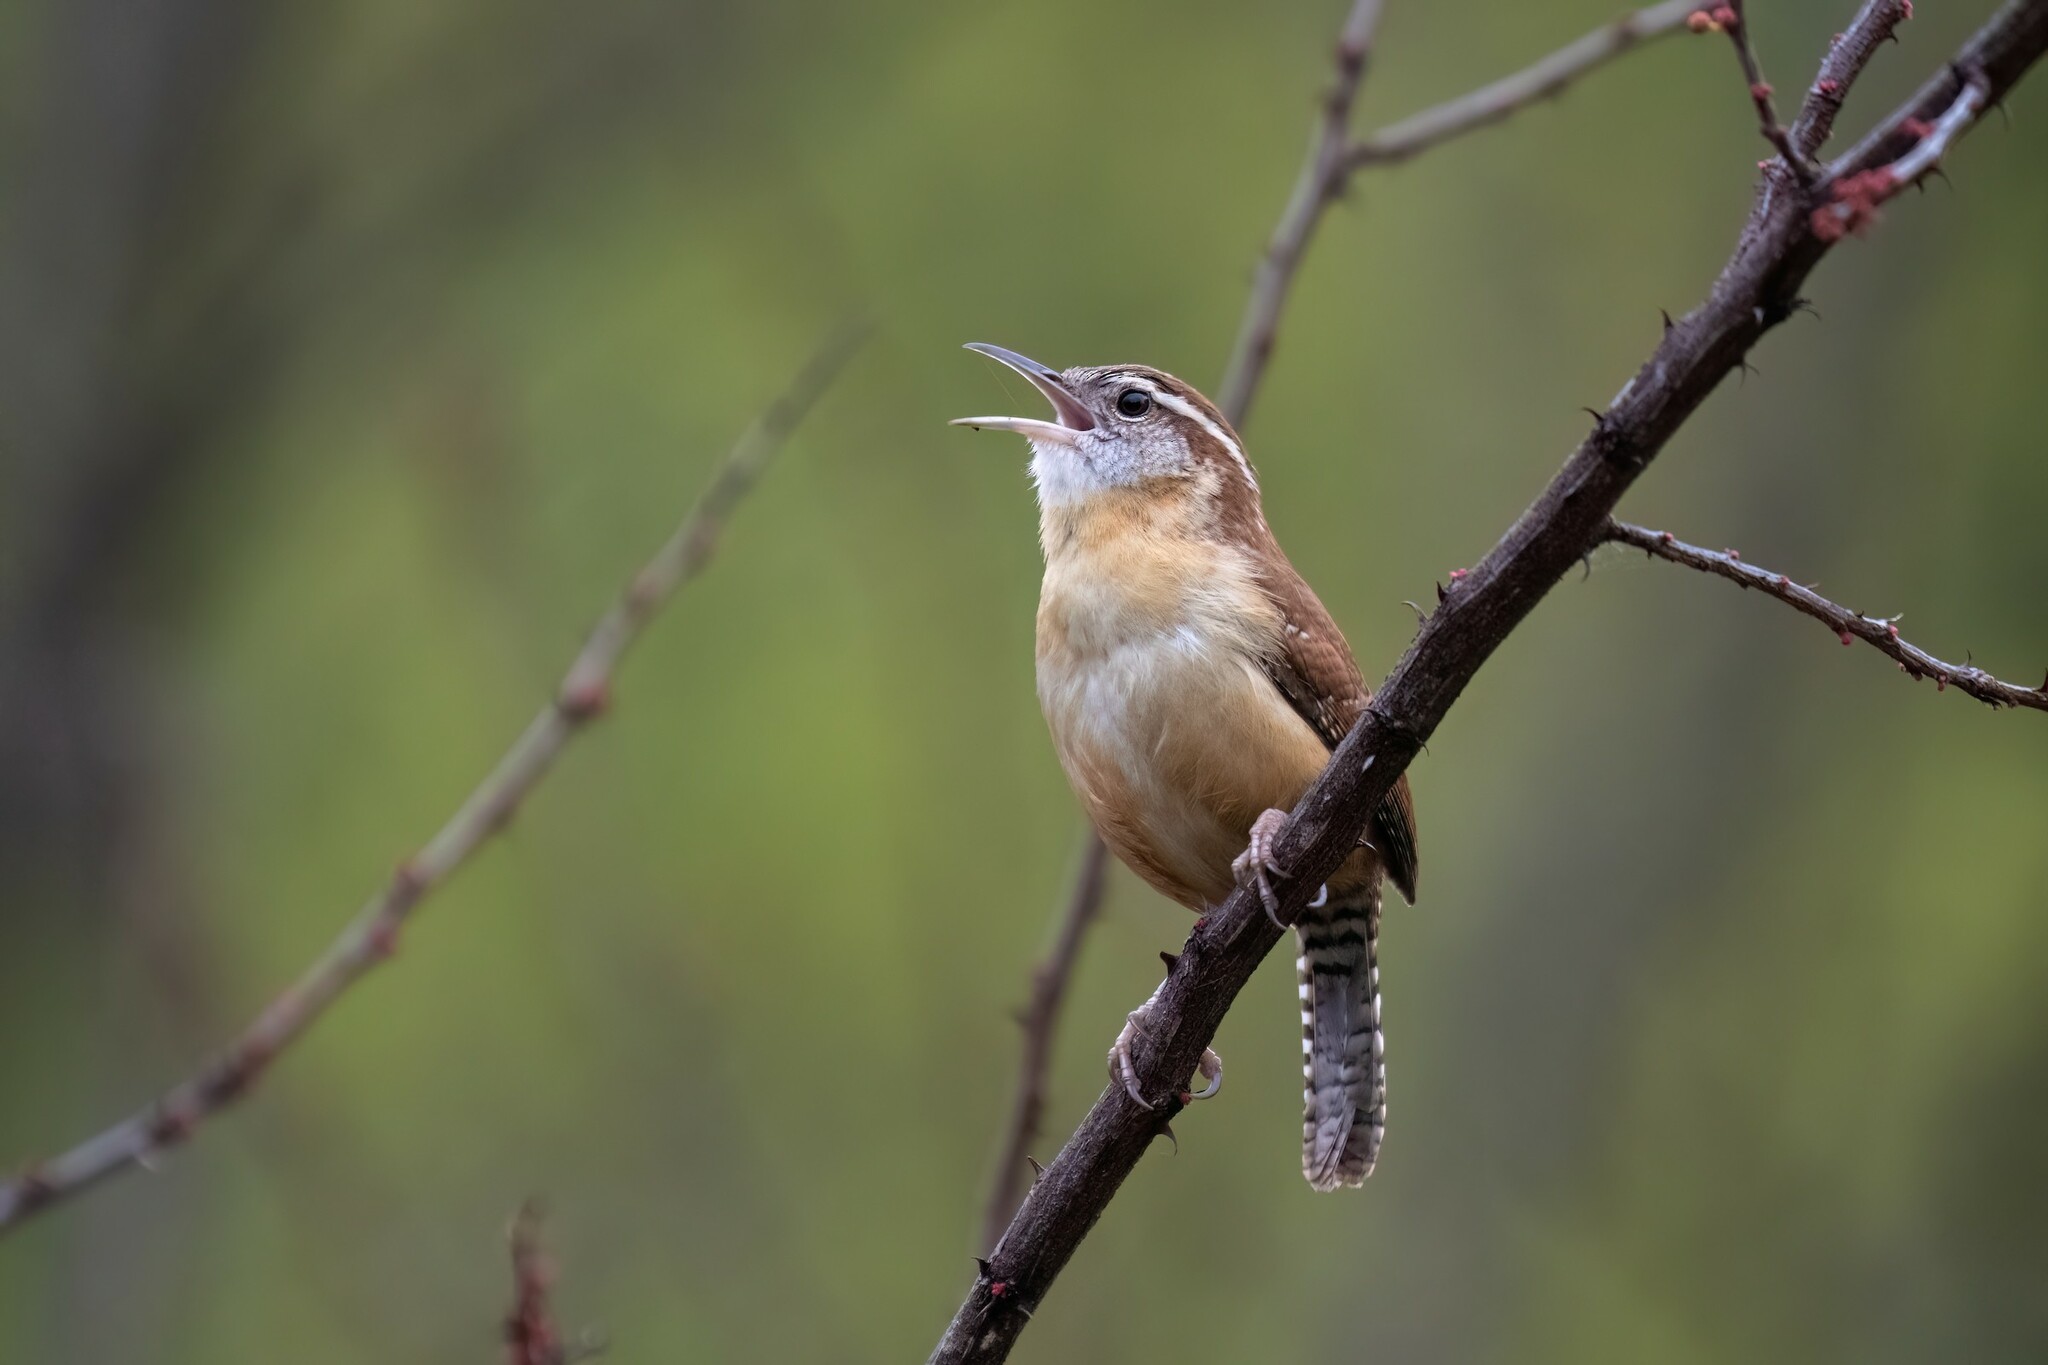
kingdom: Animalia
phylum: Chordata
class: Aves
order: Passeriformes
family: Troglodytidae
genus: Thryothorus
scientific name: Thryothorus ludovicianus
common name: Carolina wren
